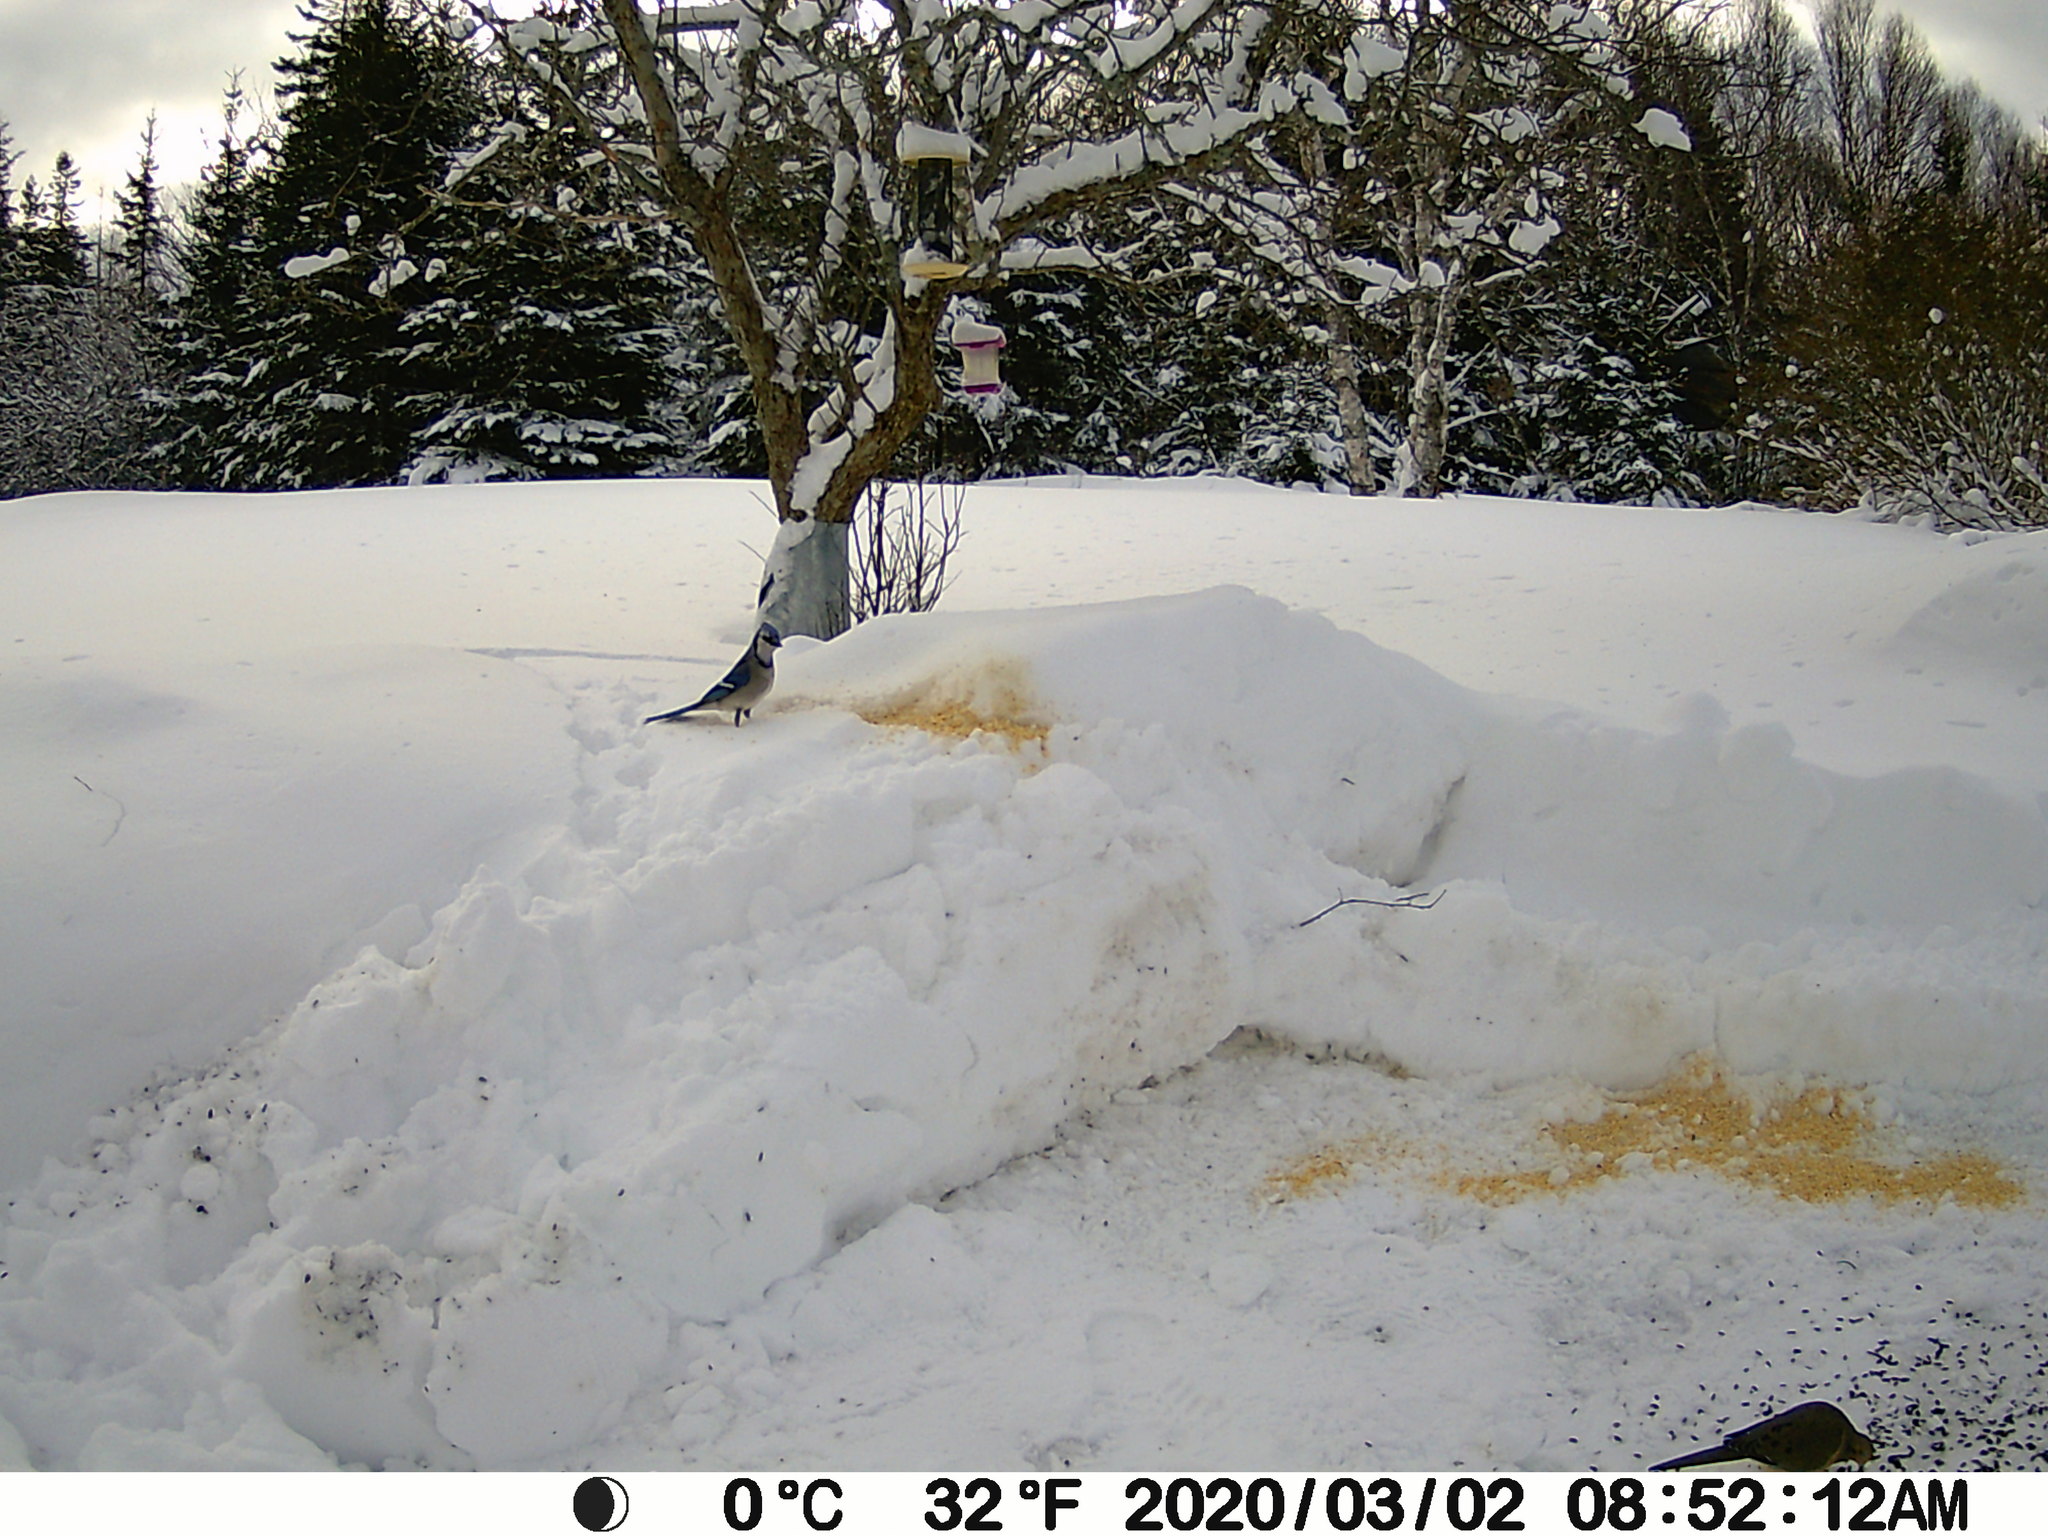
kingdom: Animalia
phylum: Chordata
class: Aves
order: Passeriformes
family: Corvidae
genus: Cyanocitta
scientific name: Cyanocitta cristata
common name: Blue jay
